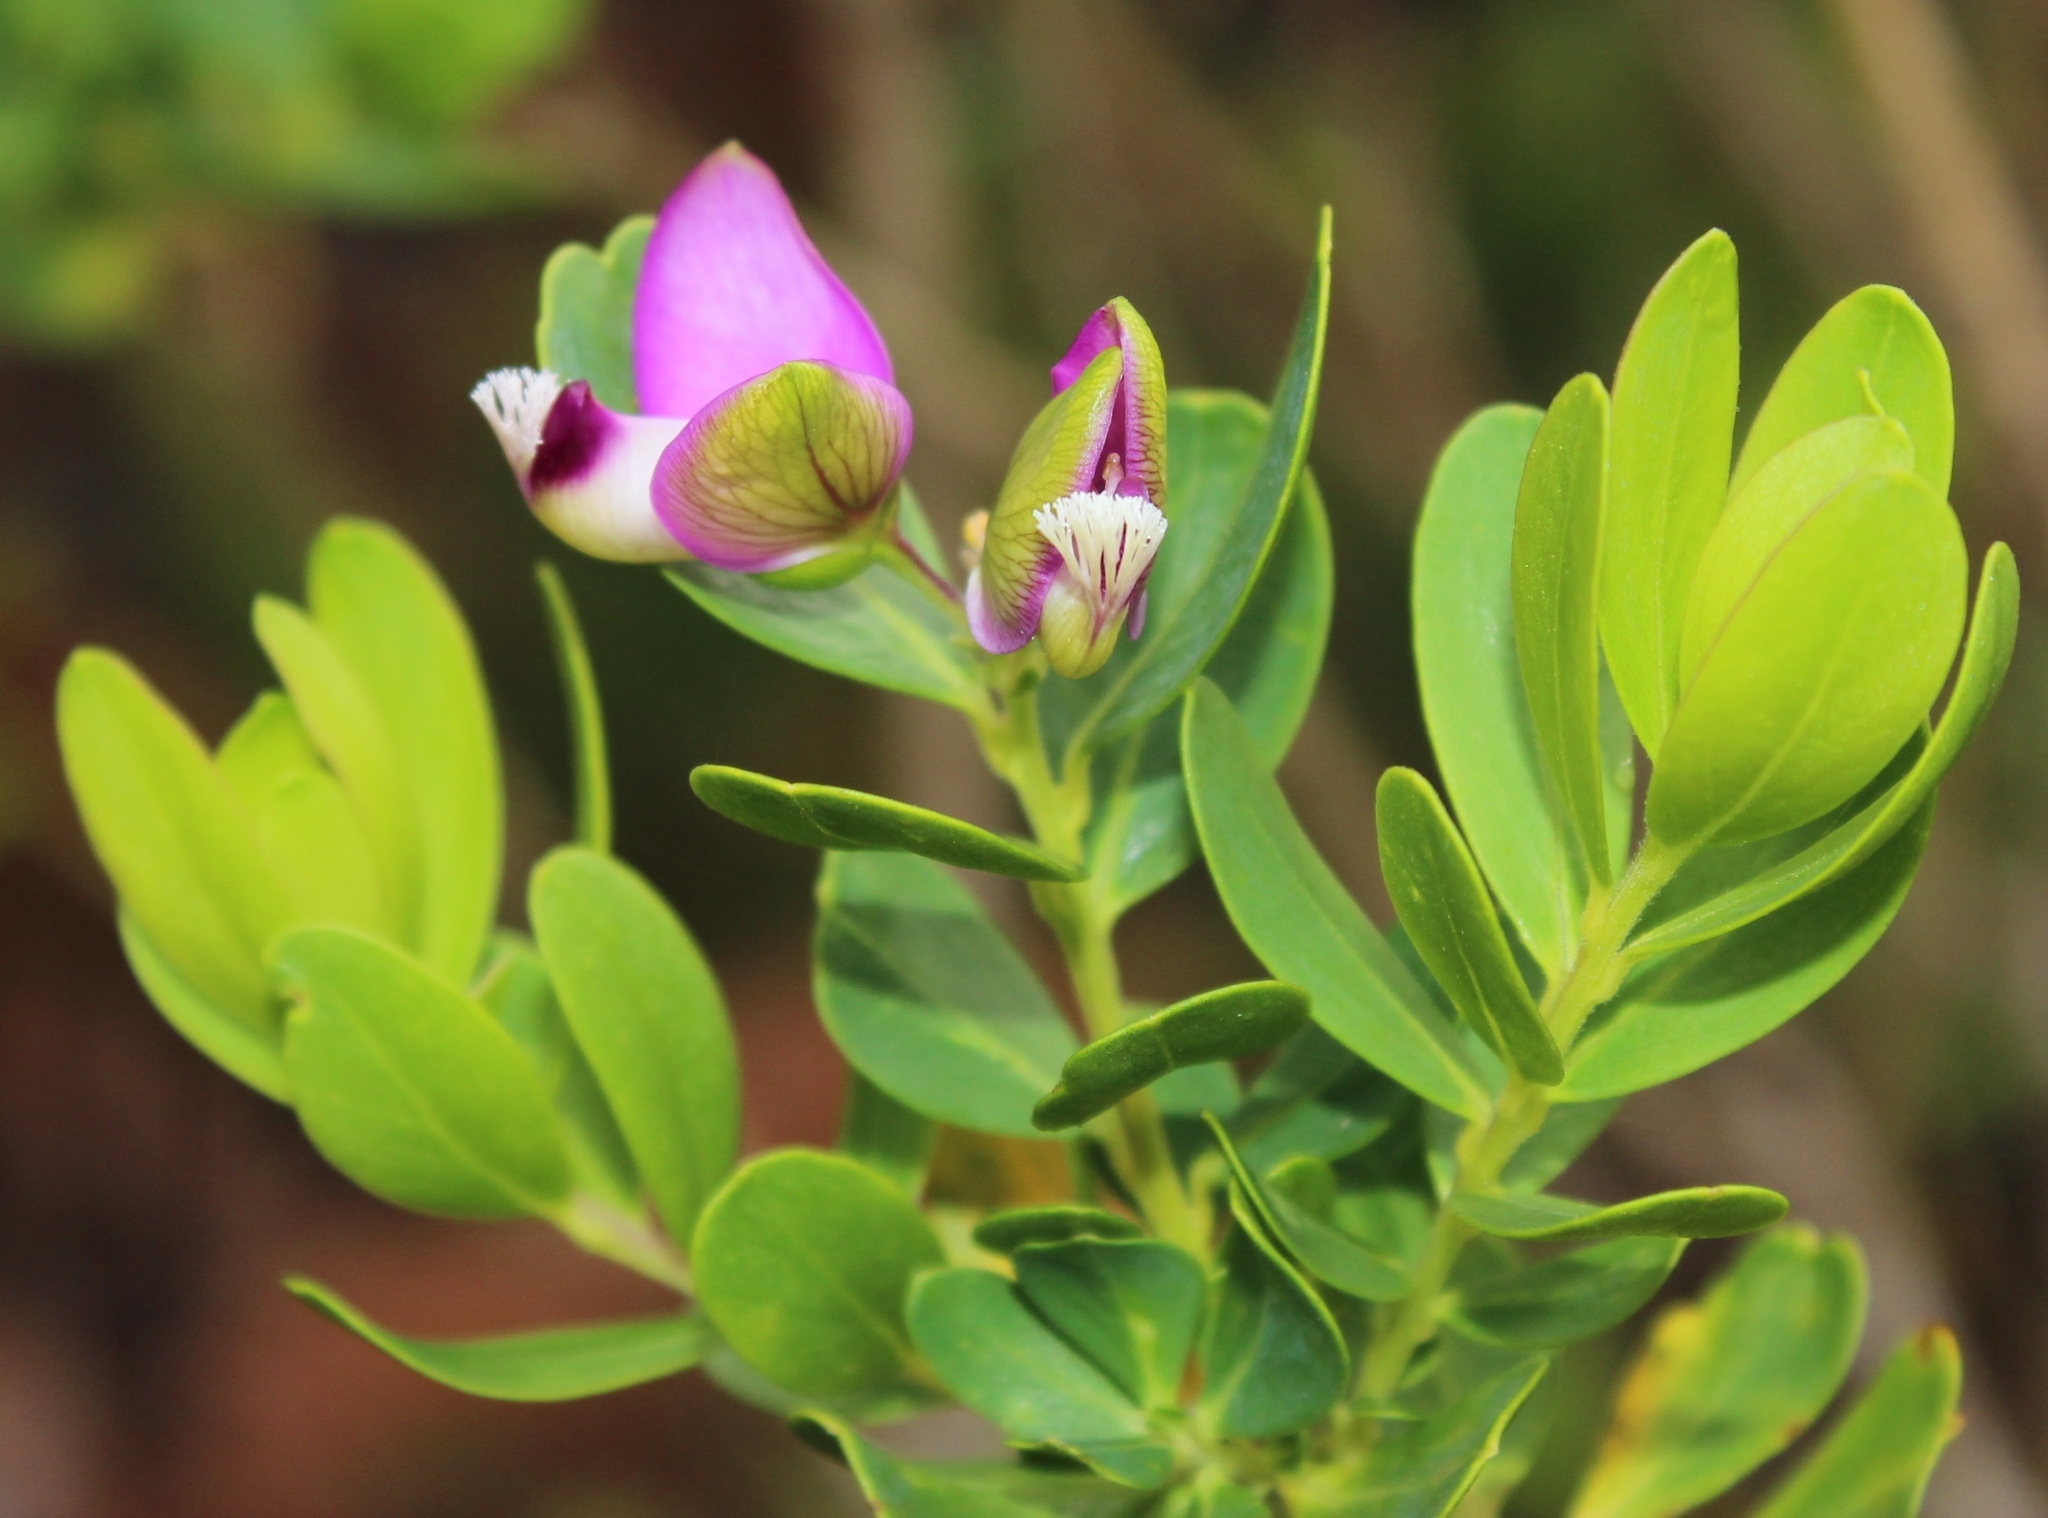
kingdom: Plantae
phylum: Tracheophyta
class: Magnoliopsida
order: Fabales
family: Polygalaceae
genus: Polygala
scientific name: Polygala myrtifolia
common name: Myrtle-leaf milkwort
